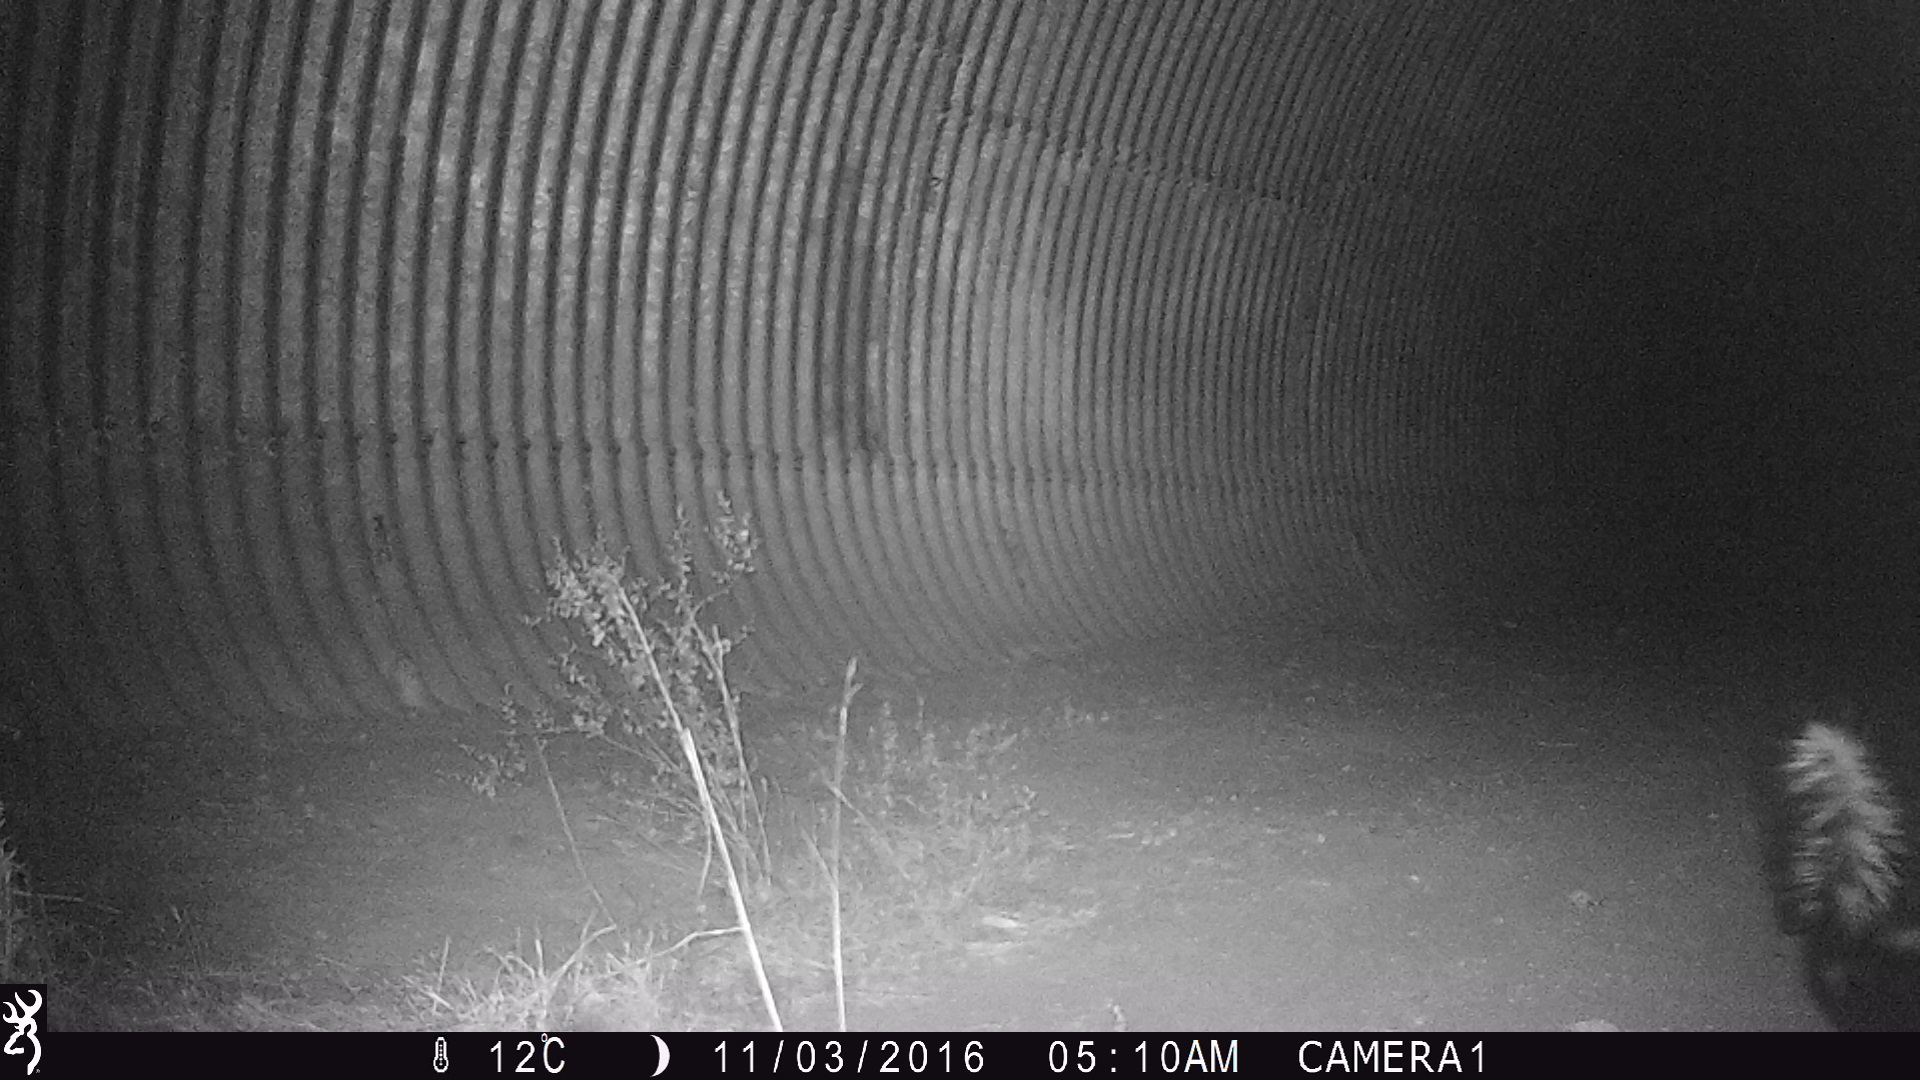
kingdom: Animalia
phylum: Chordata
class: Mammalia
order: Carnivora
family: Mephitidae
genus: Mephitis
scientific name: Mephitis mephitis
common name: Striped skunk
